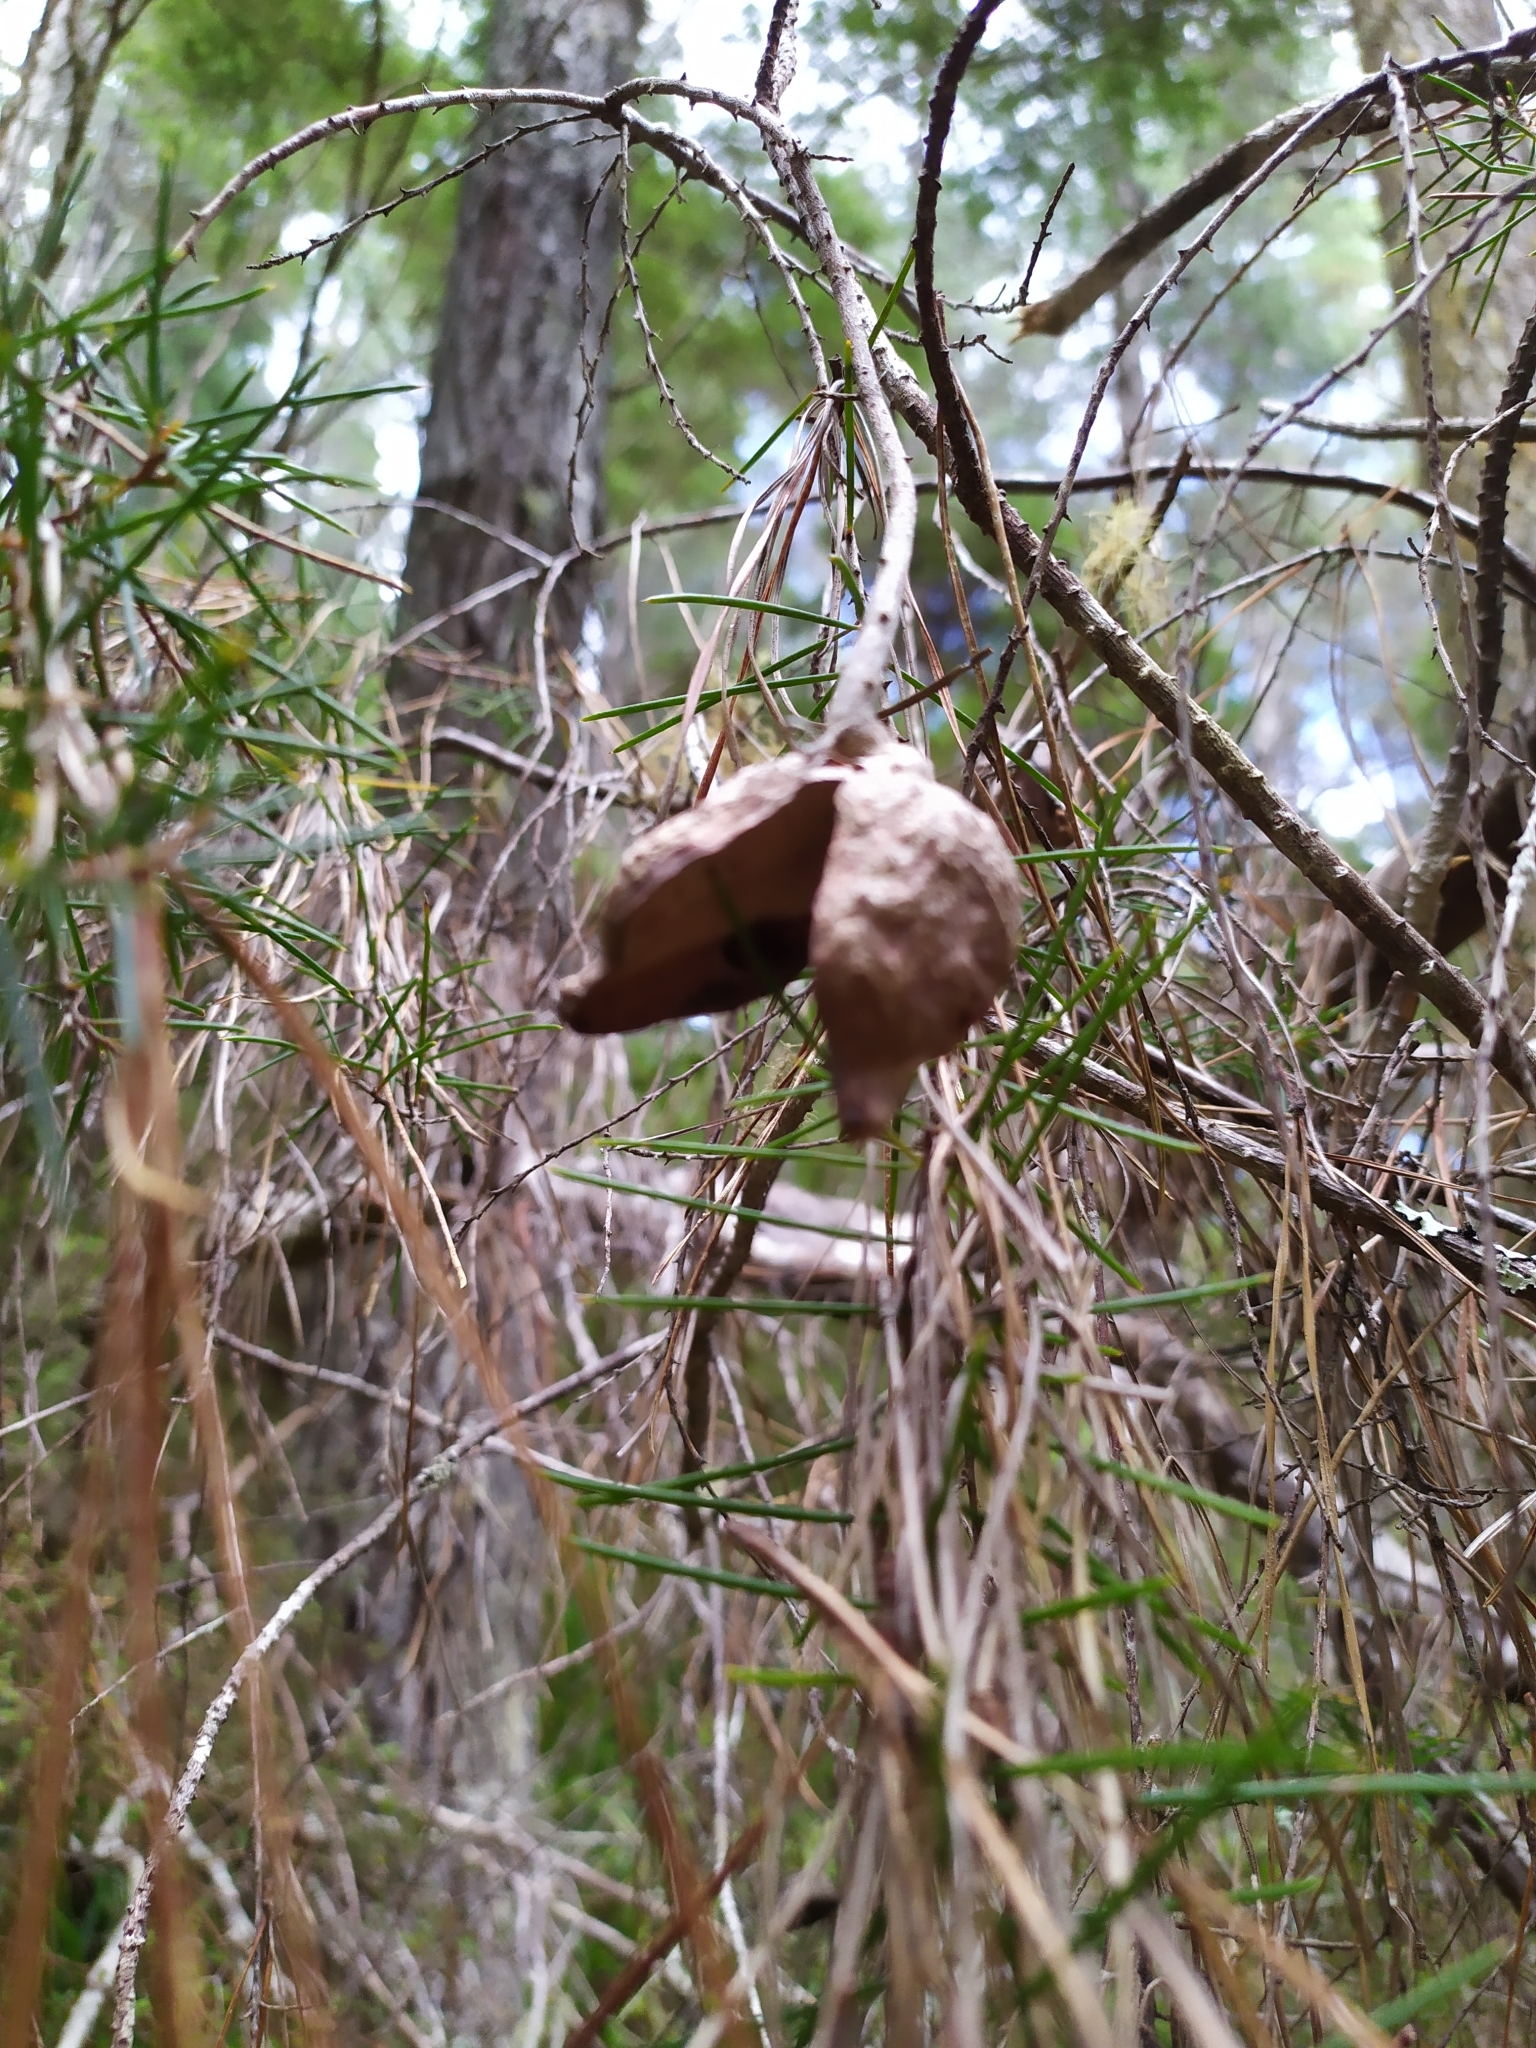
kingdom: Plantae
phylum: Tracheophyta
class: Magnoliopsida
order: Proteales
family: Proteaceae
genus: Hakea
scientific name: Hakea sericea
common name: Needle bush
